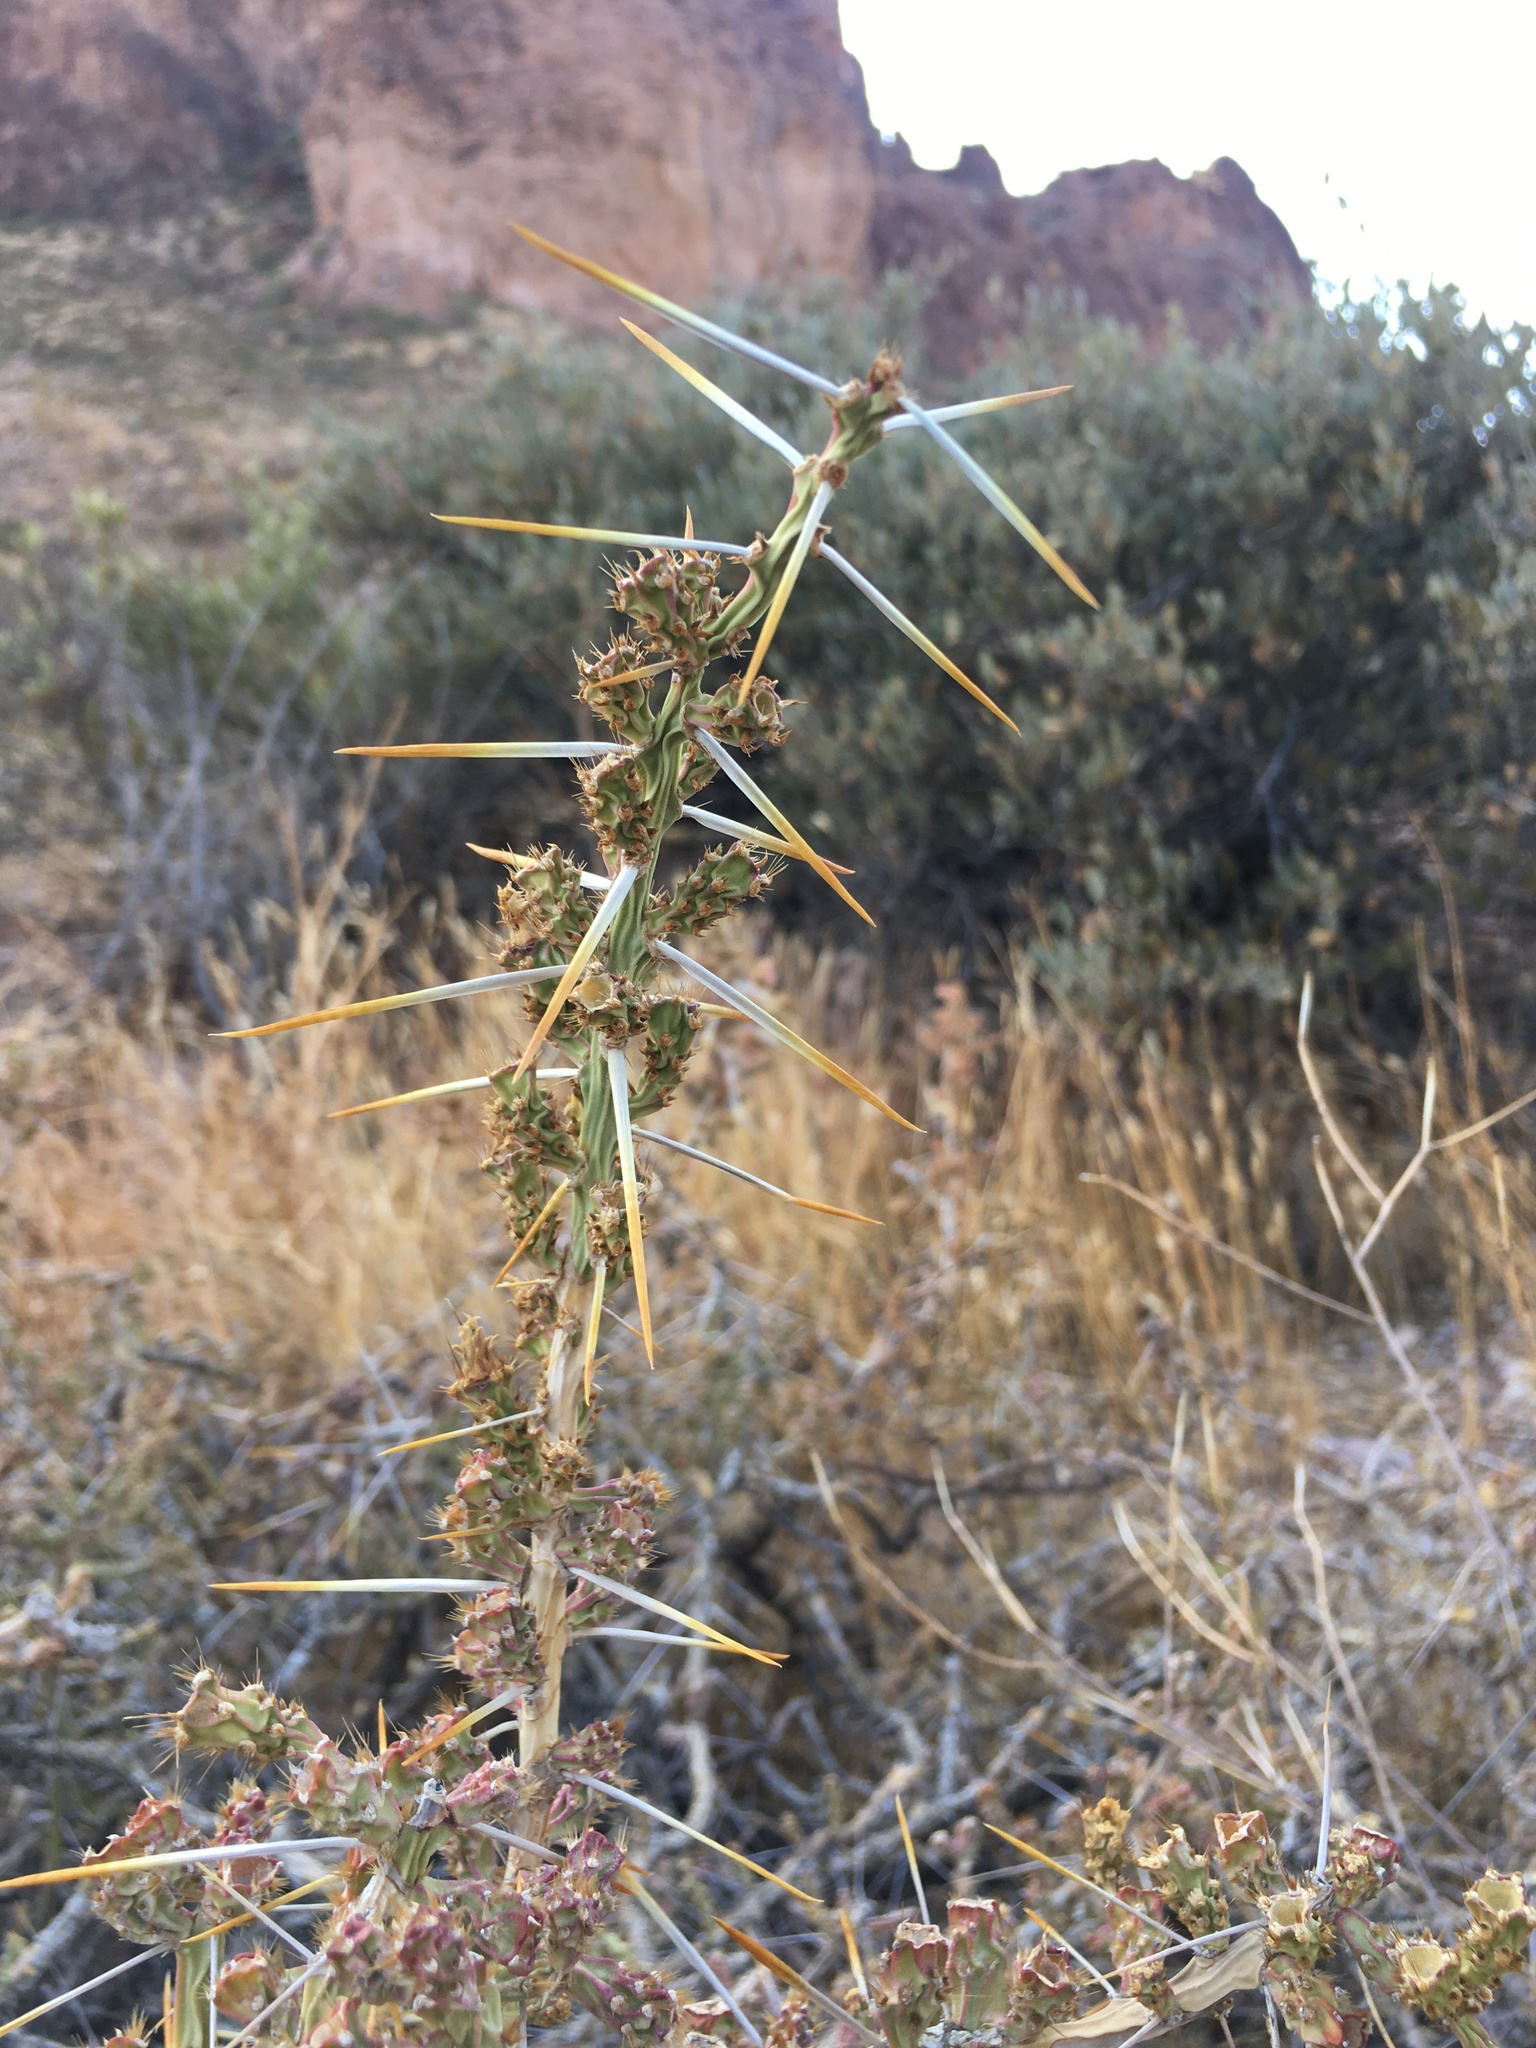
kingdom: Plantae
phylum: Tracheophyta
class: Magnoliopsida
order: Caryophyllales
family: Cactaceae
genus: Cylindropuntia
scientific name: Cylindropuntia leptocaulis
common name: Christmas cactus
